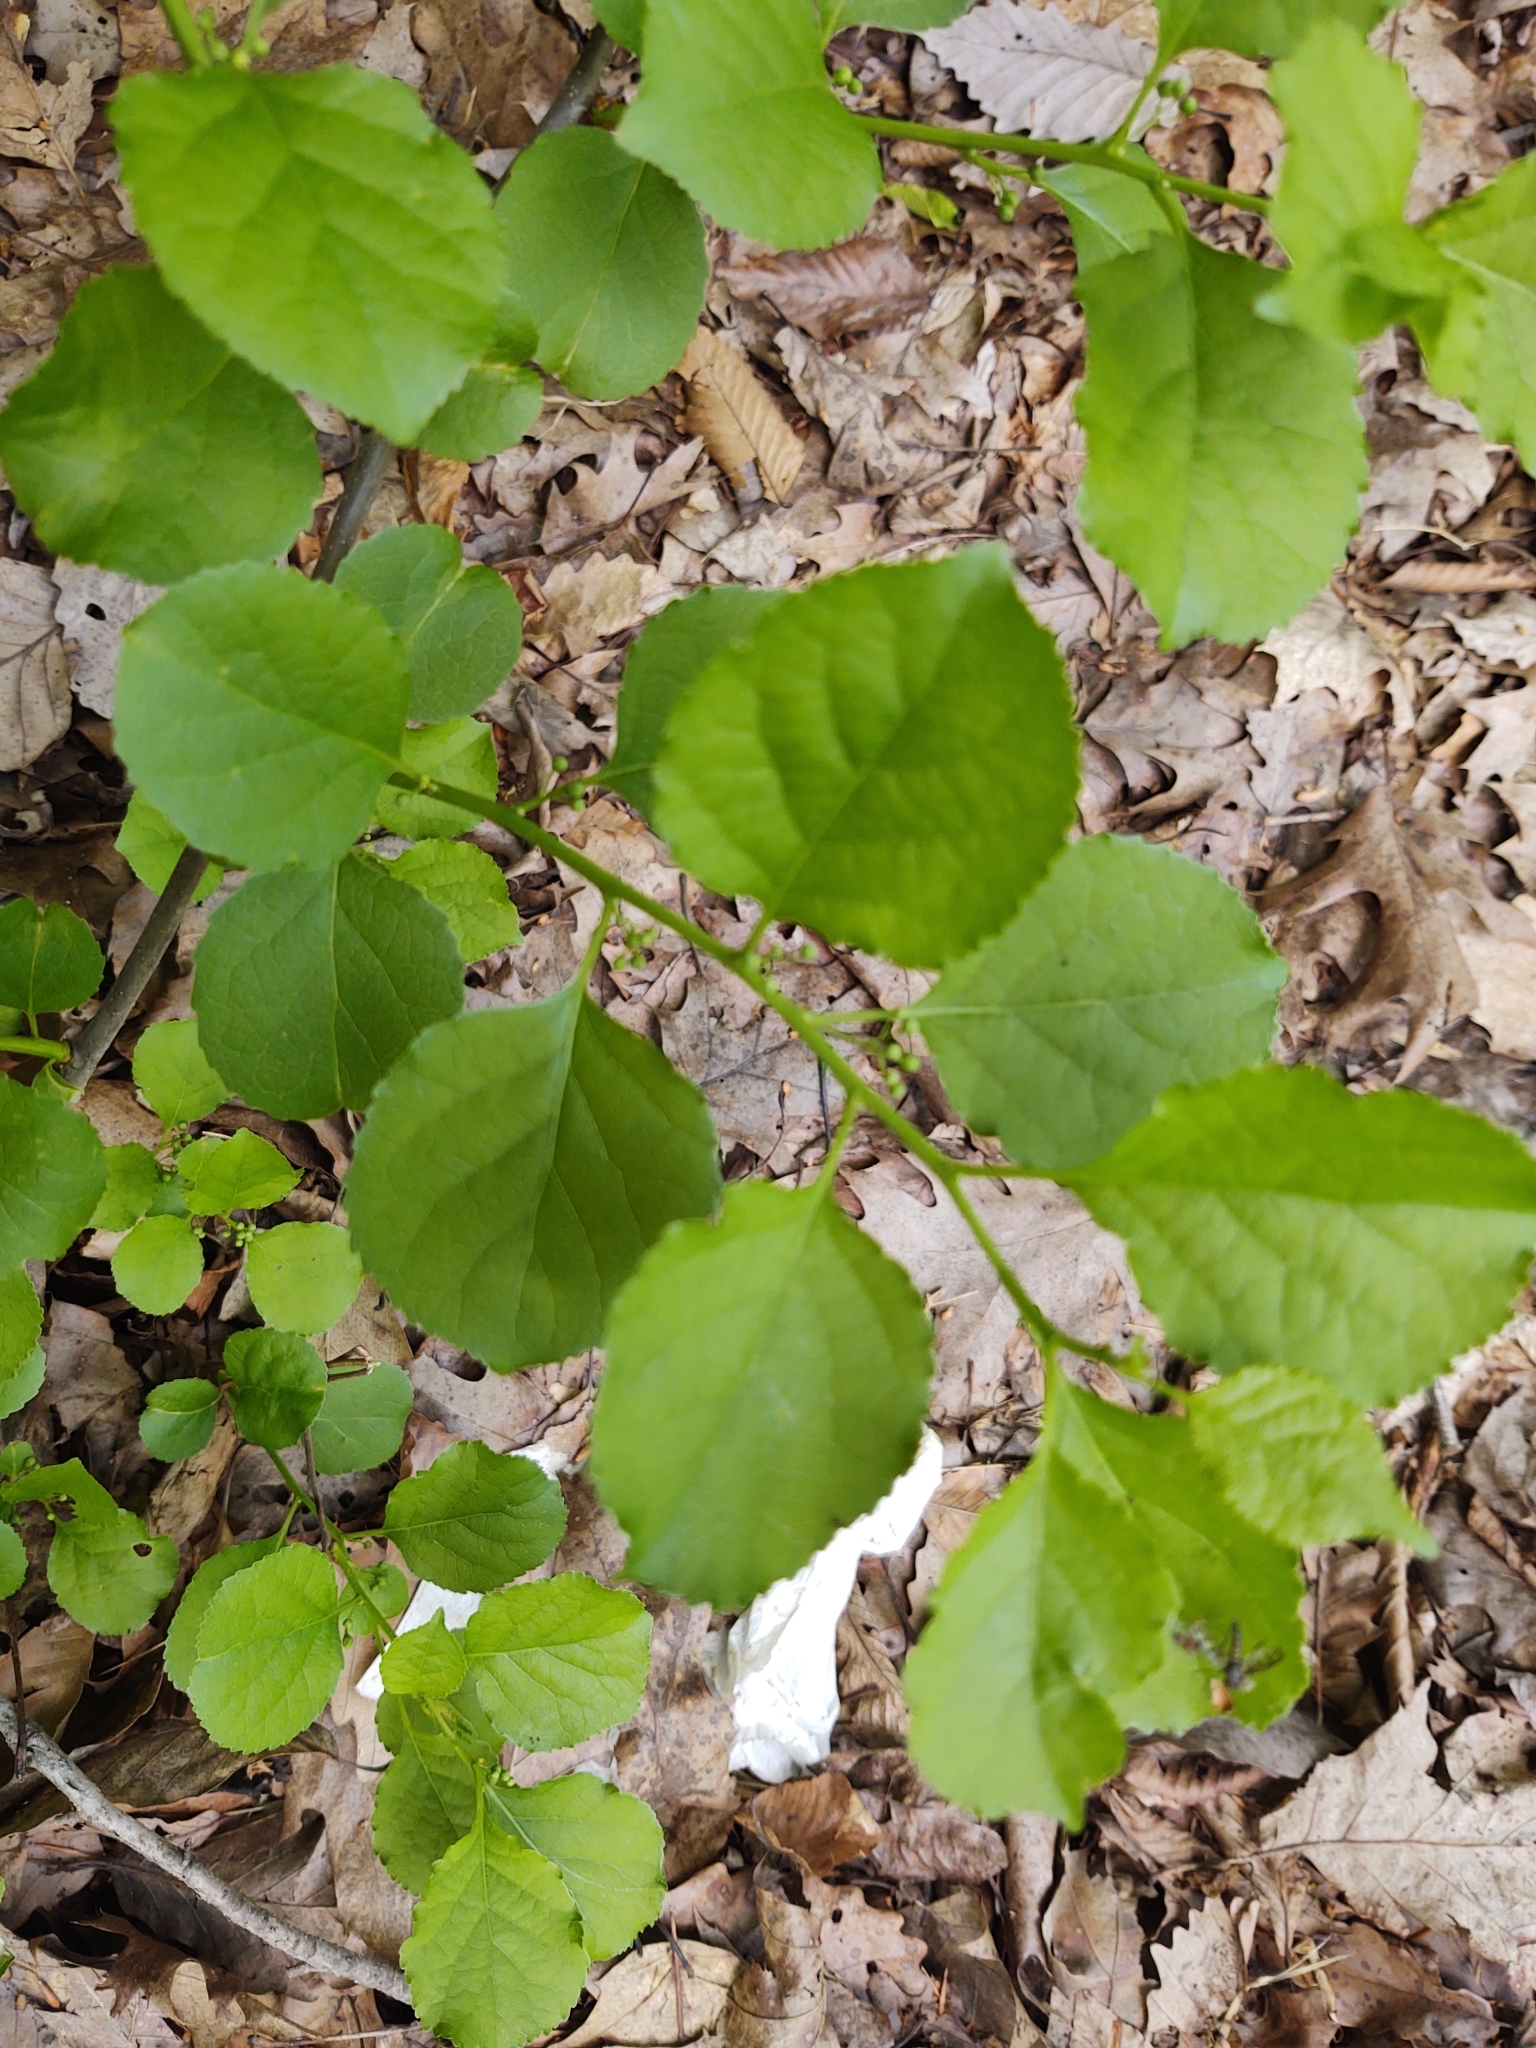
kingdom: Plantae
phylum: Tracheophyta
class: Magnoliopsida
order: Celastrales
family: Celastraceae
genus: Celastrus
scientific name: Celastrus orbiculatus
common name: Oriental bittersweet
